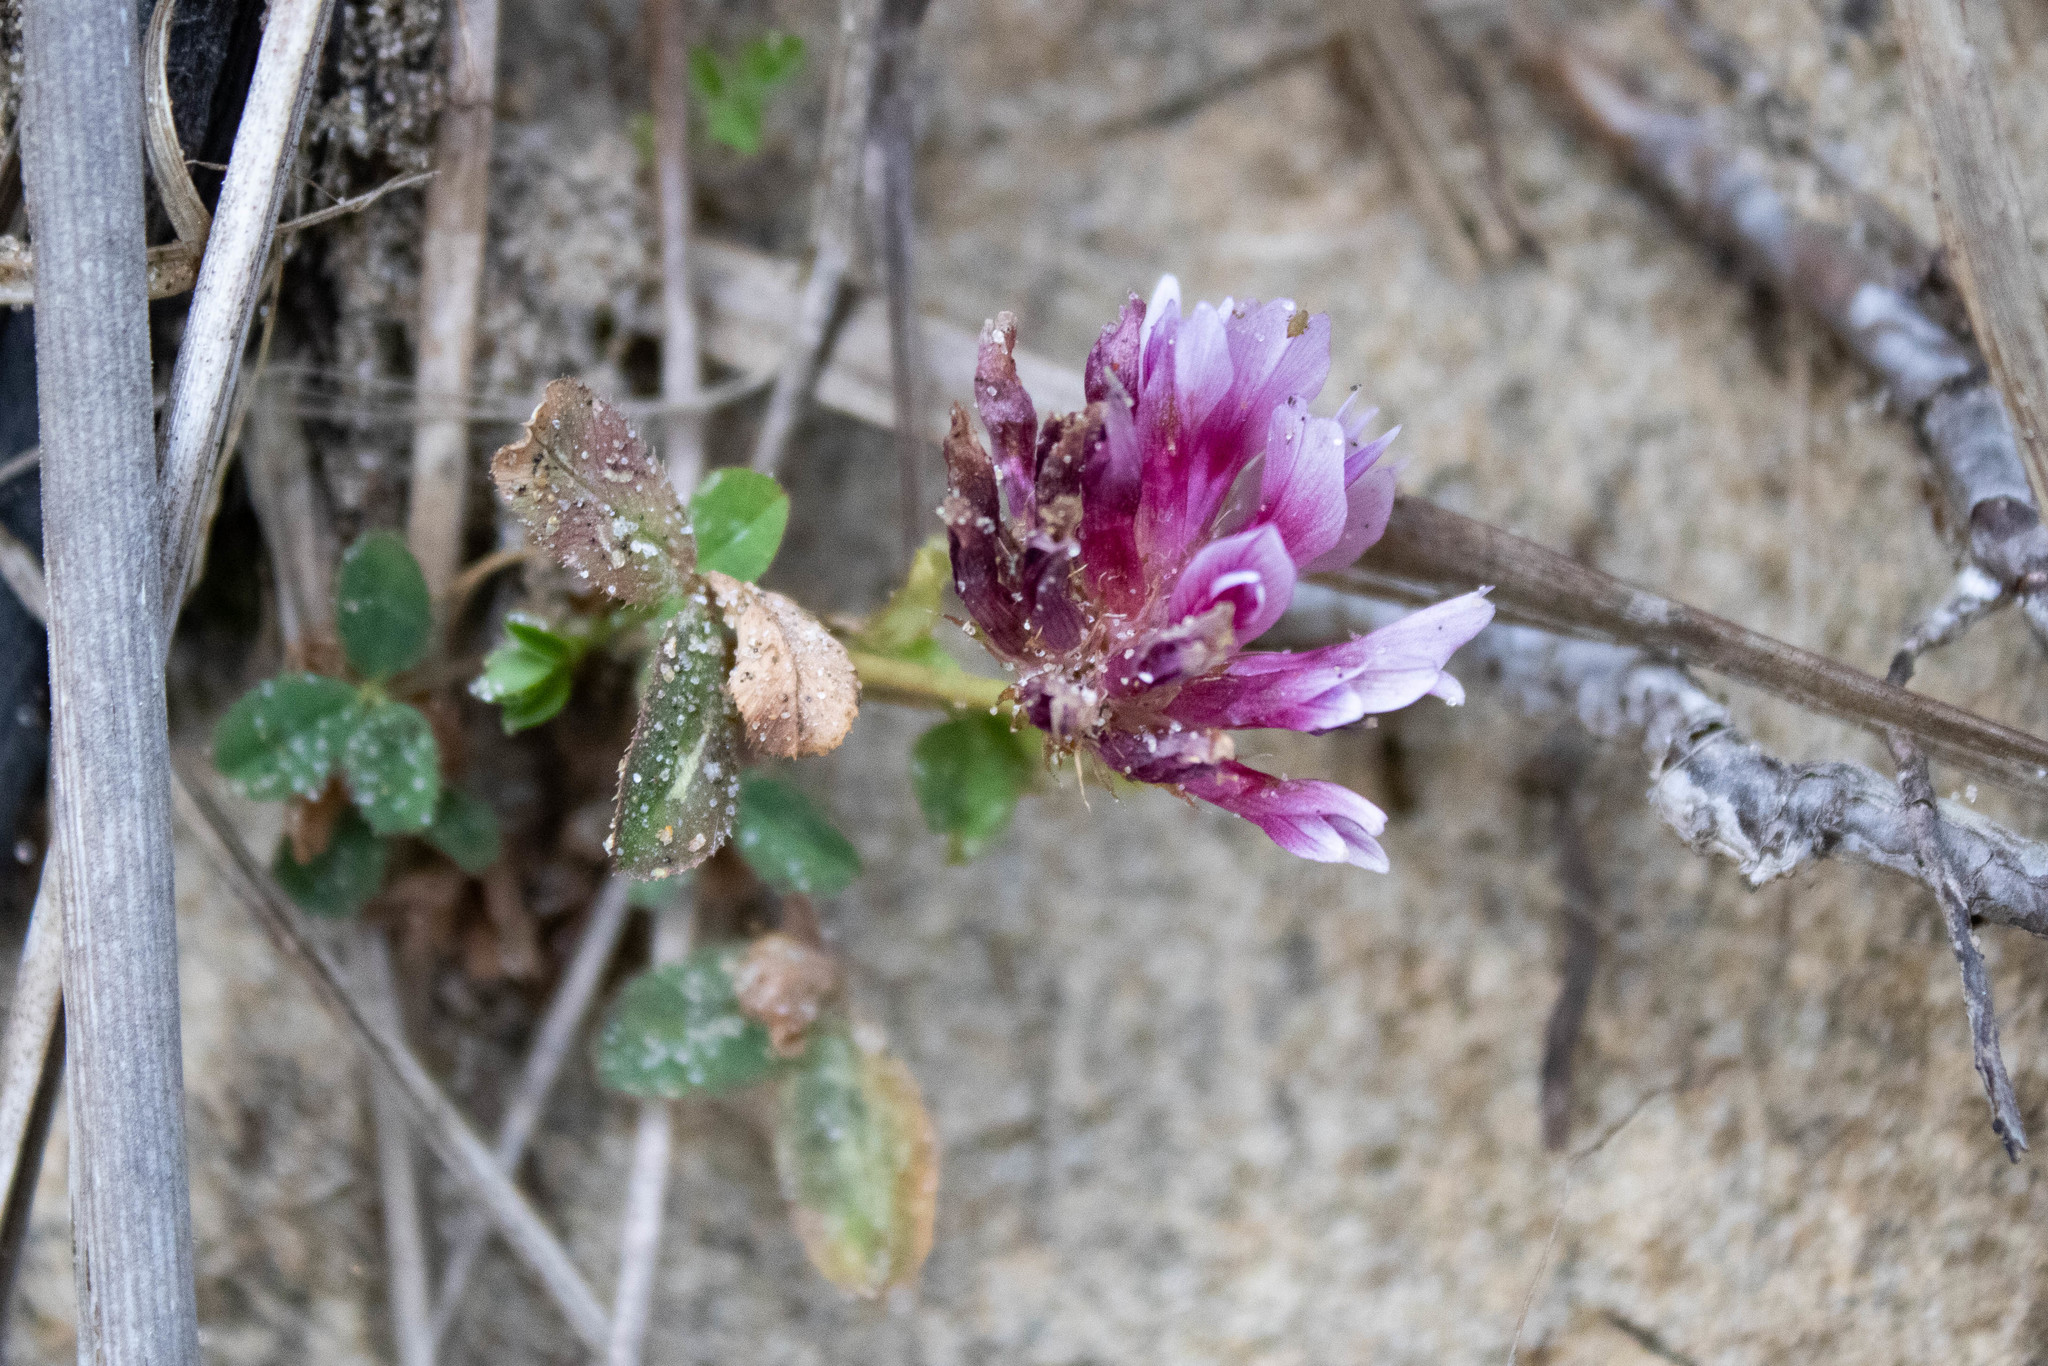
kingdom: Plantae
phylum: Tracheophyta
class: Magnoliopsida
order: Fabales
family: Fabaceae
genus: Trifolium
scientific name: Trifolium wormskioldii
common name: Springbank clover
